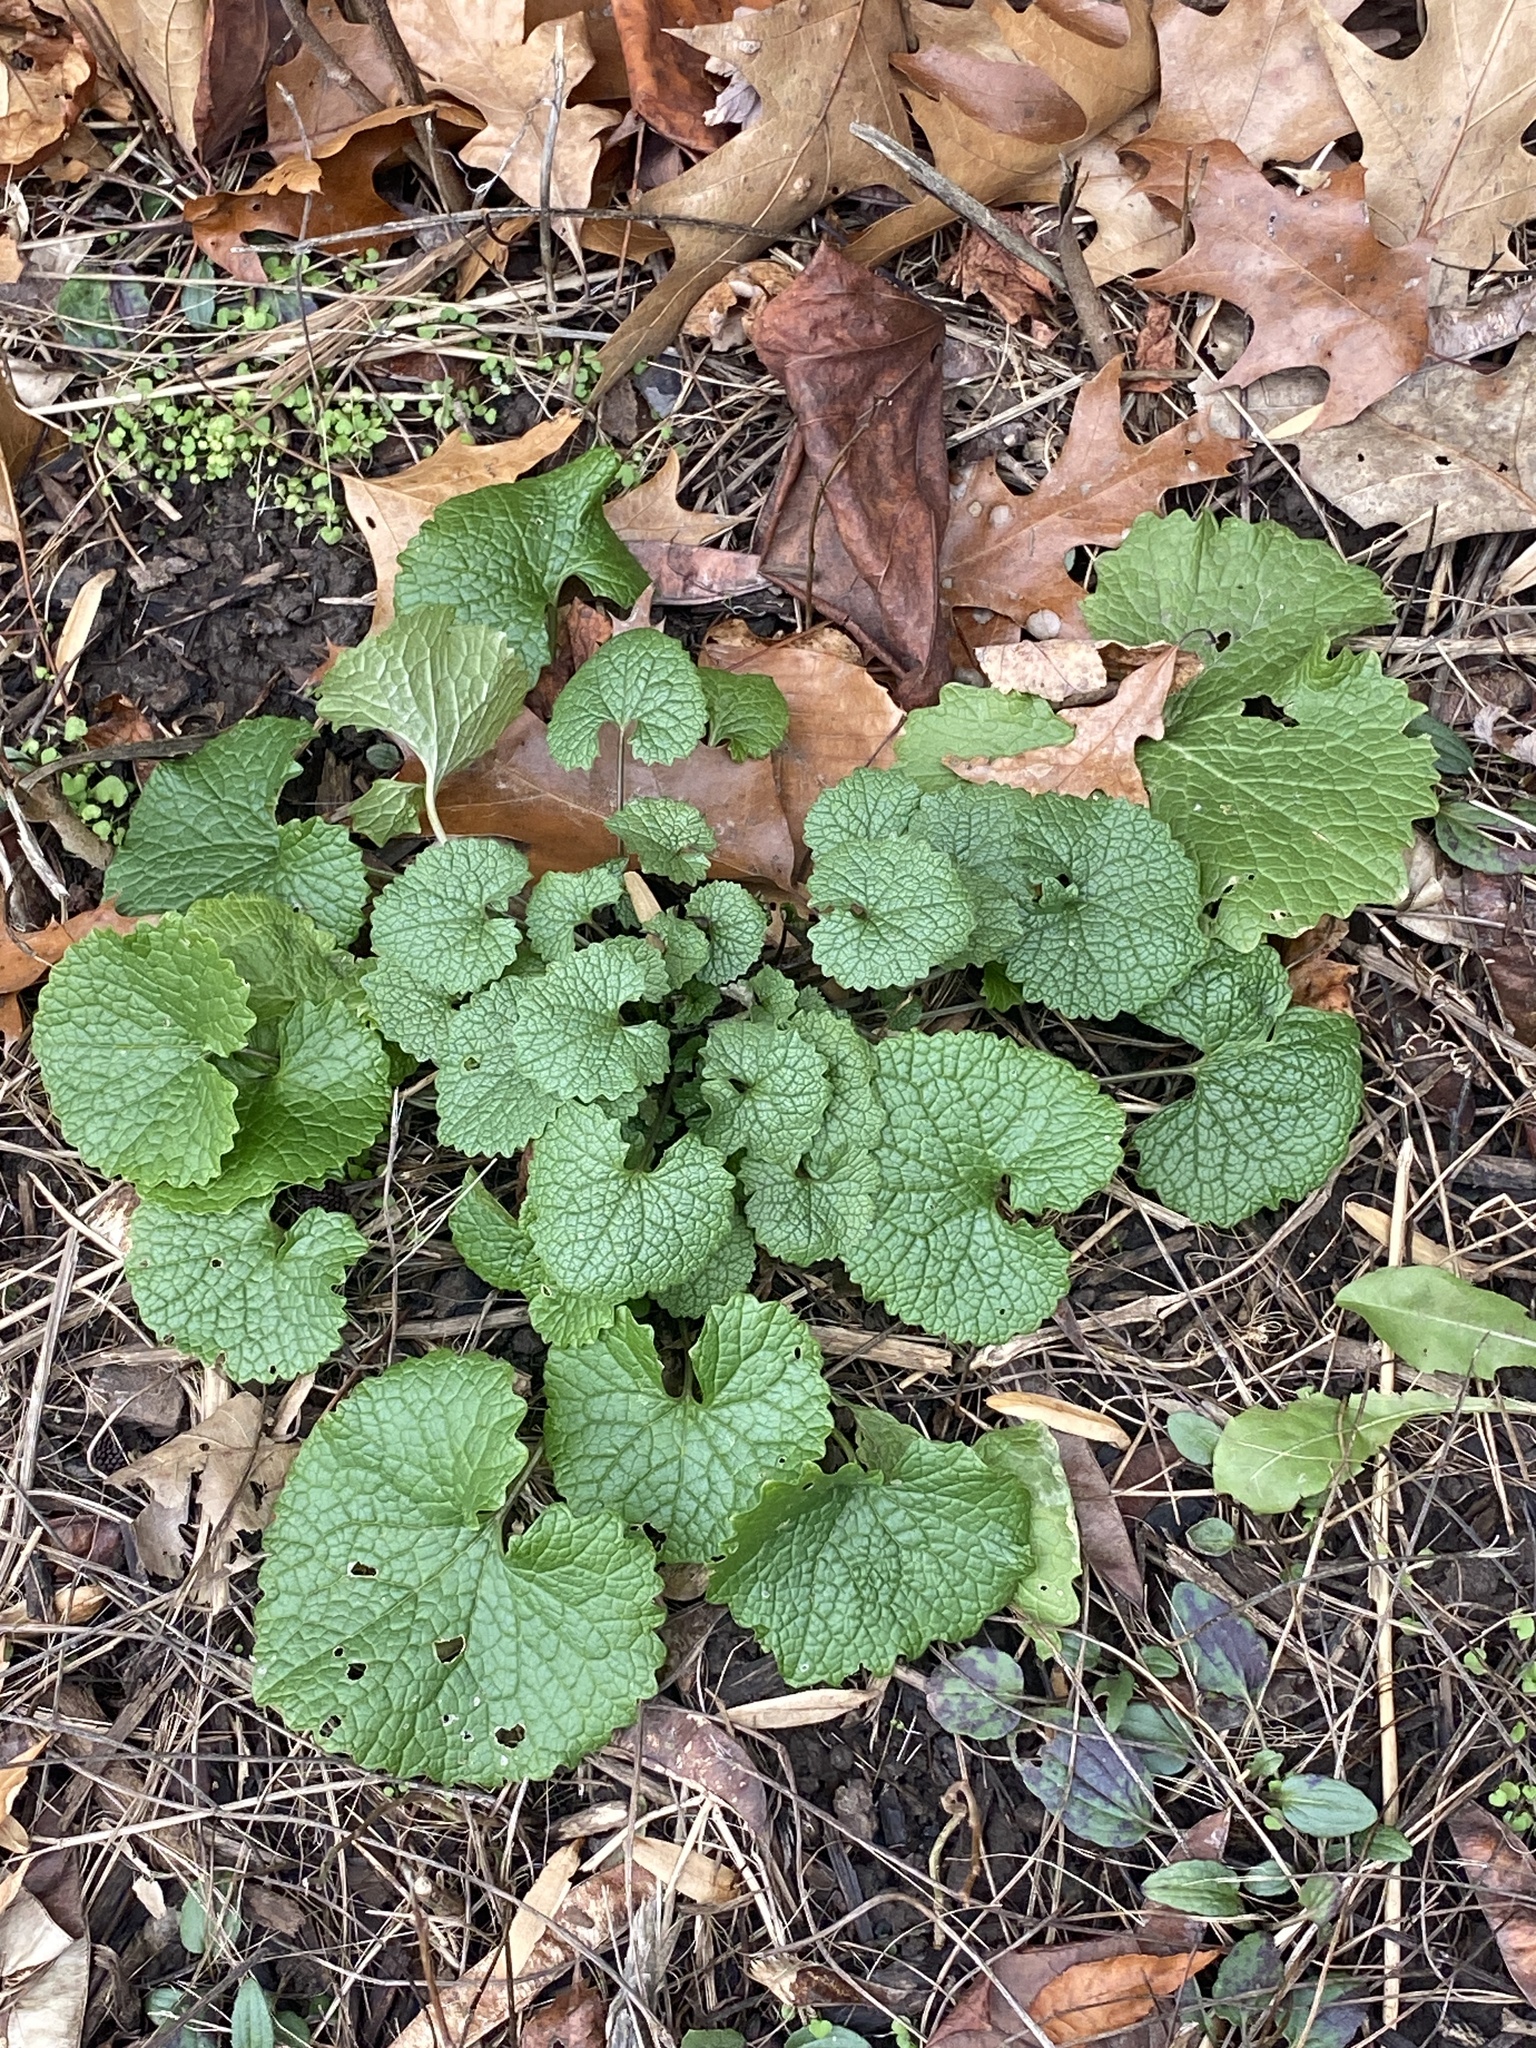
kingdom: Plantae
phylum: Tracheophyta
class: Magnoliopsida
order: Brassicales
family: Brassicaceae
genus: Alliaria
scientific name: Alliaria petiolata
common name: Garlic mustard
